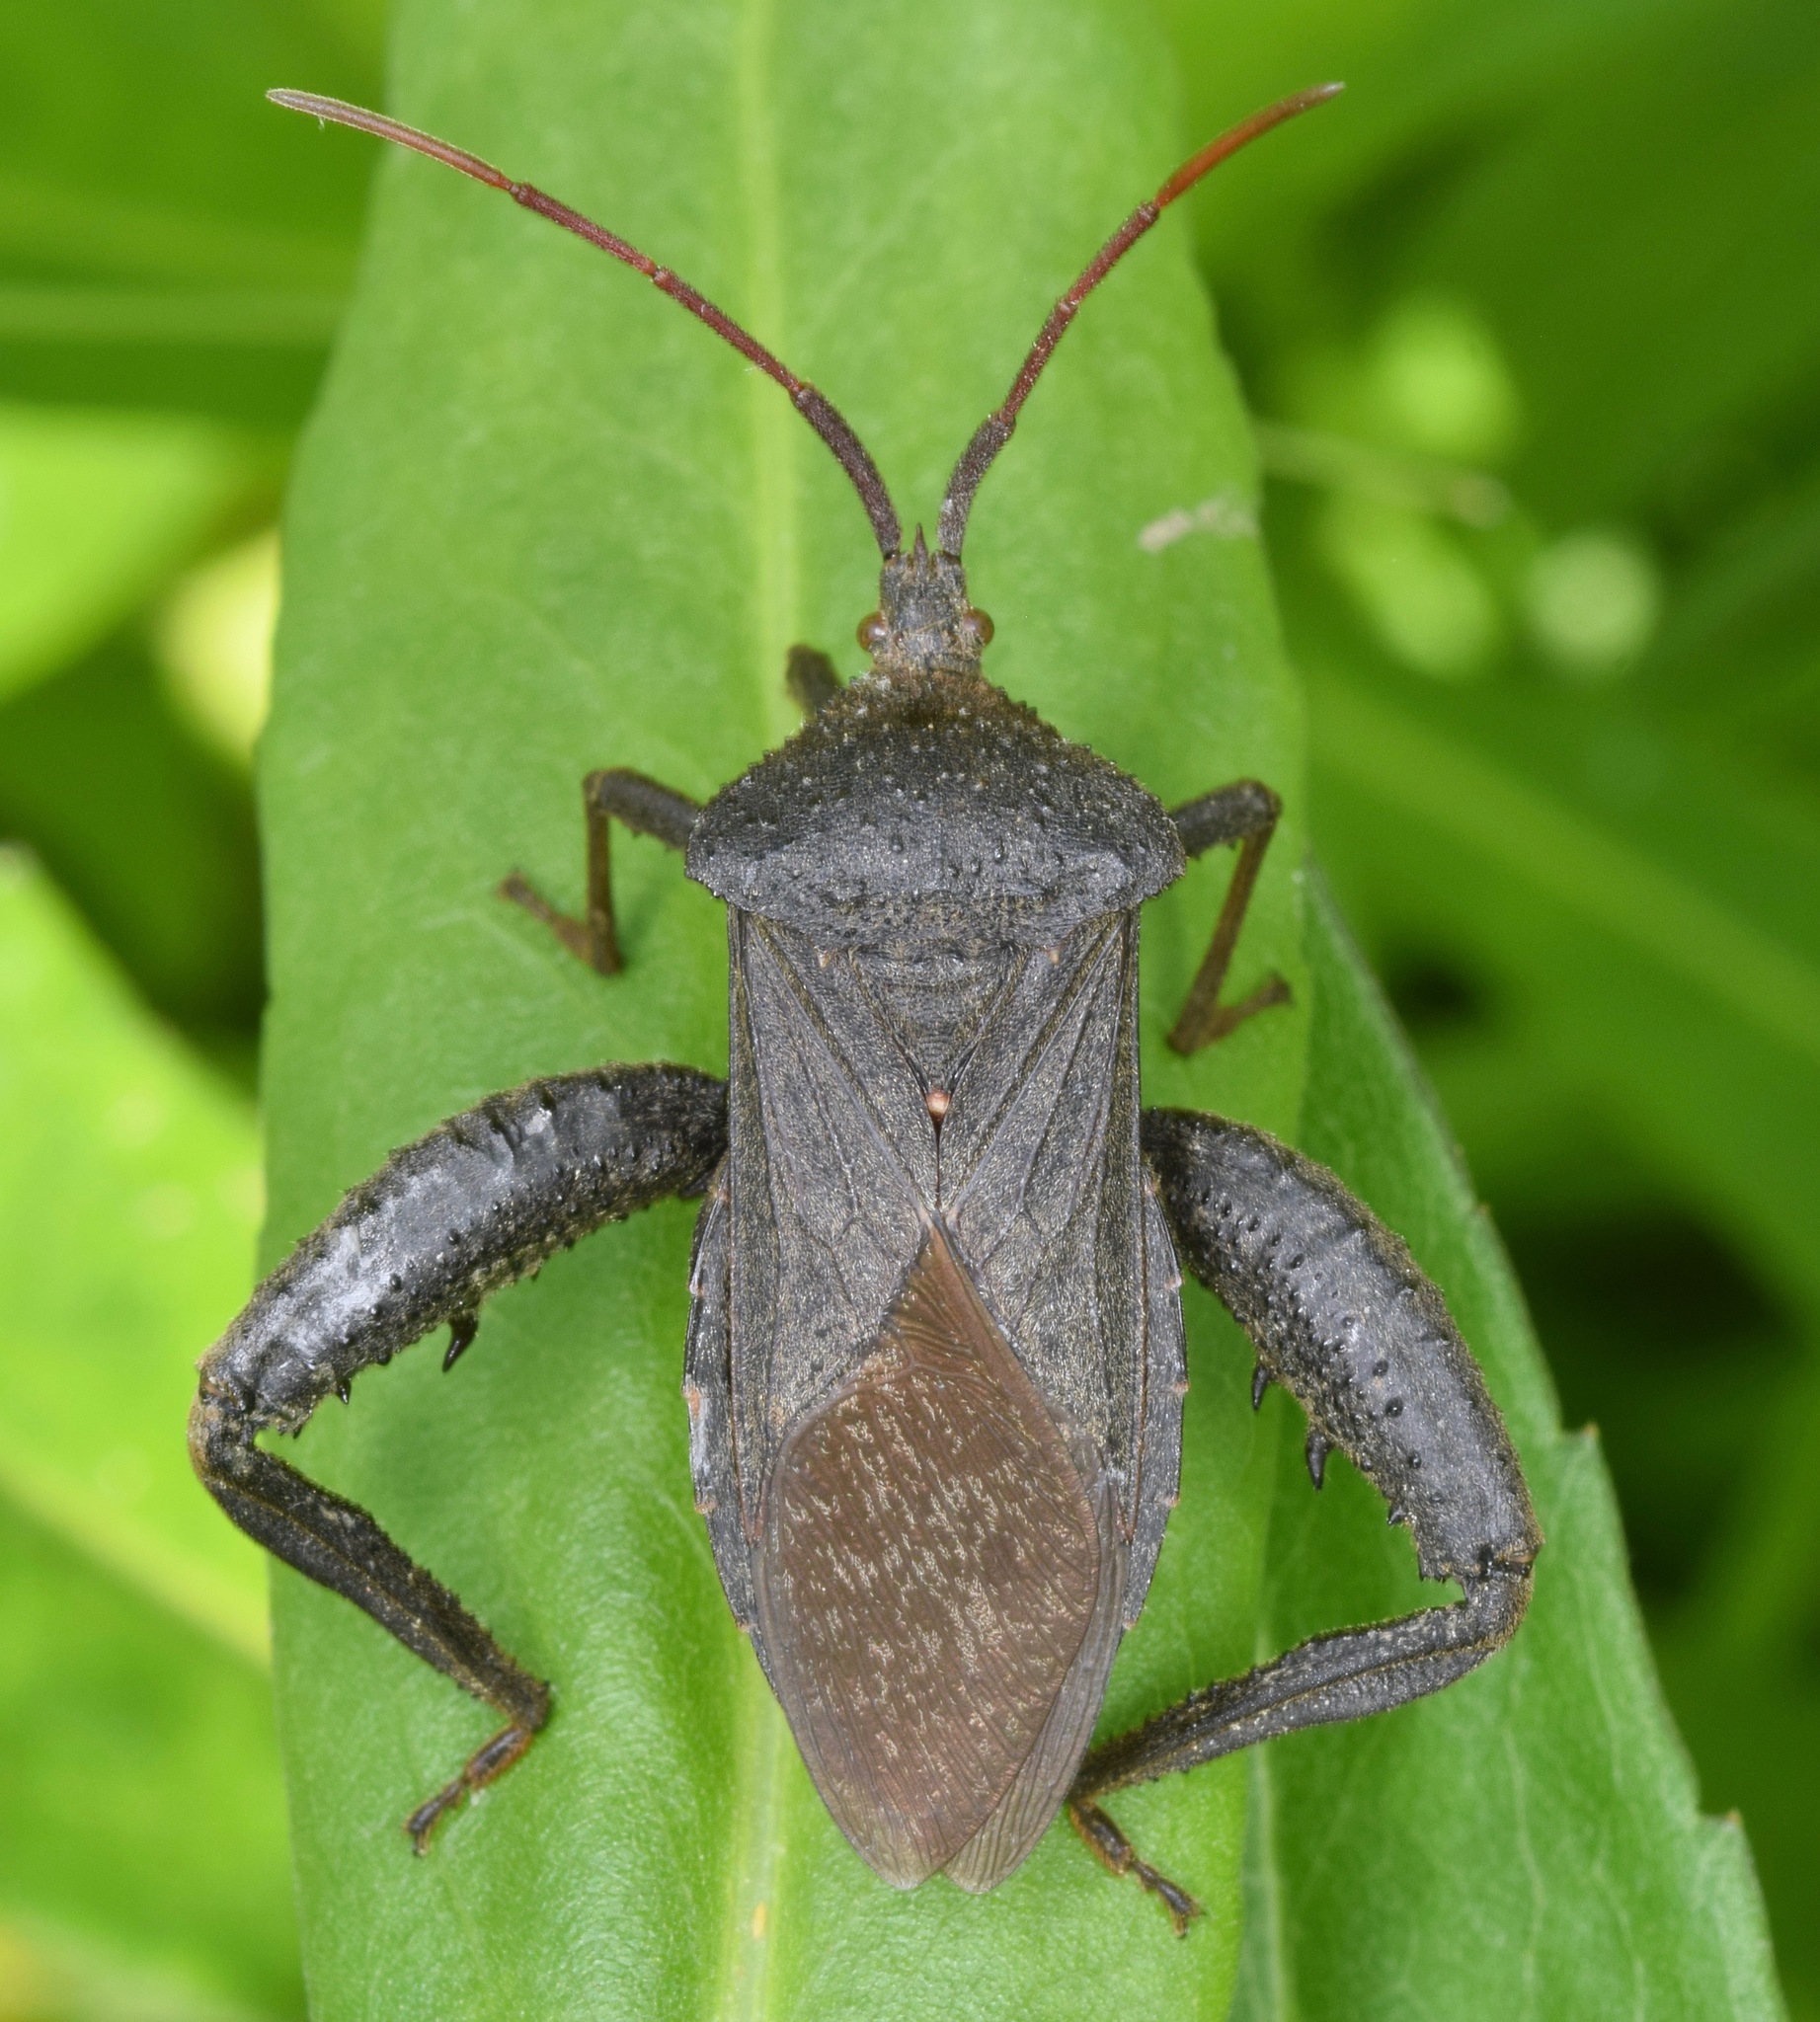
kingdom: Animalia
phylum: Arthropoda
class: Insecta
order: Hemiptera
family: Coreidae
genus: Acanthocephala
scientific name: Acanthocephala femorata
